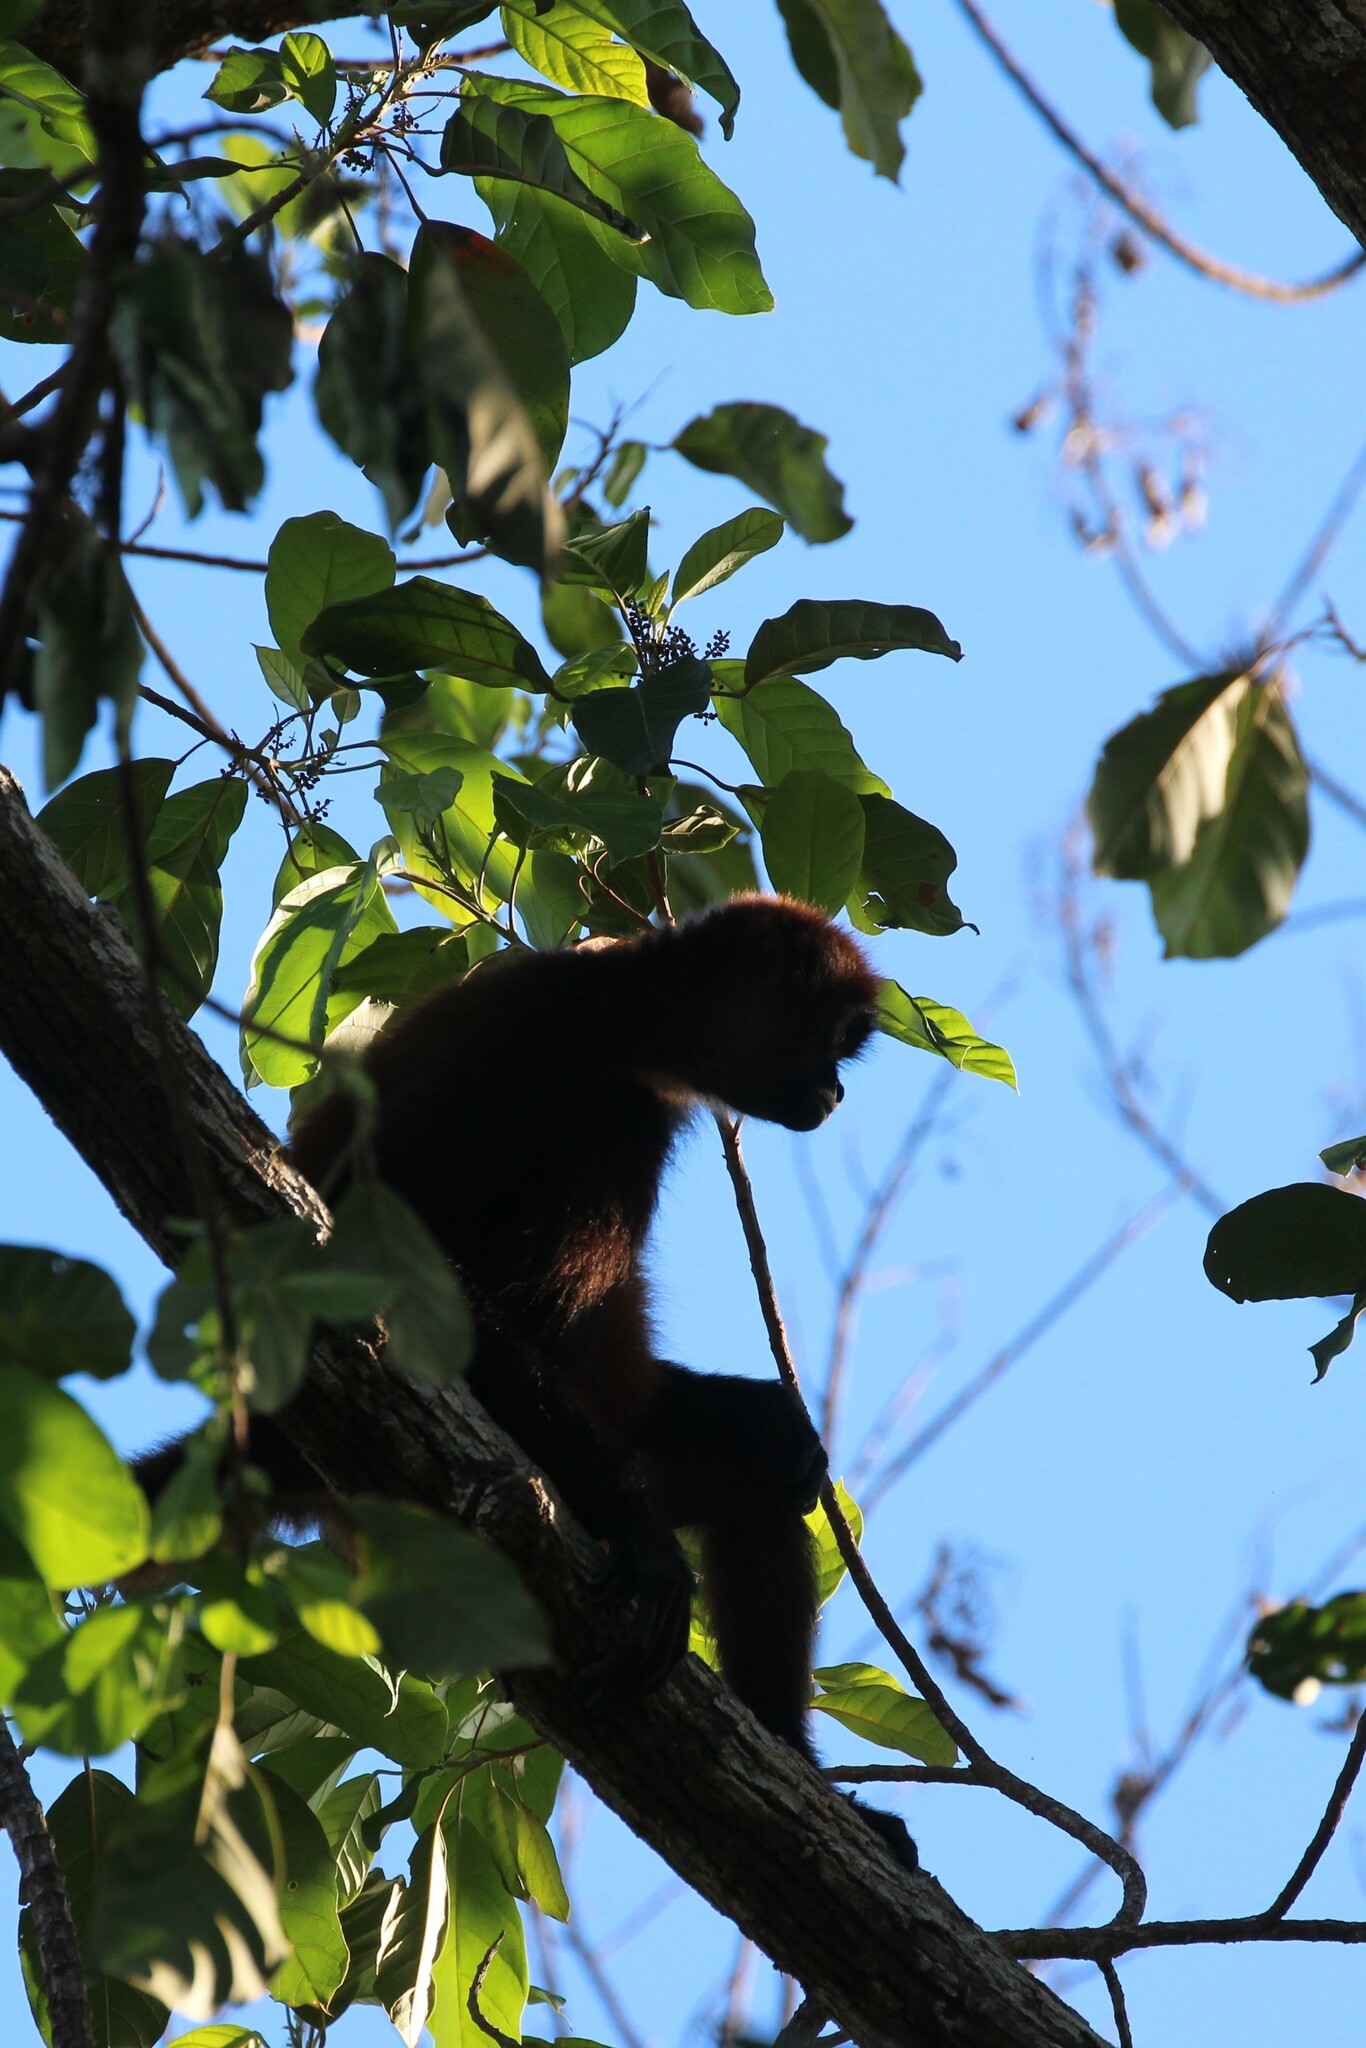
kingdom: Animalia
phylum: Chordata
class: Mammalia
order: Primates
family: Atelidae
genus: Ateles
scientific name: Ateles geoffroyi
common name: Black-handed spider monkey
